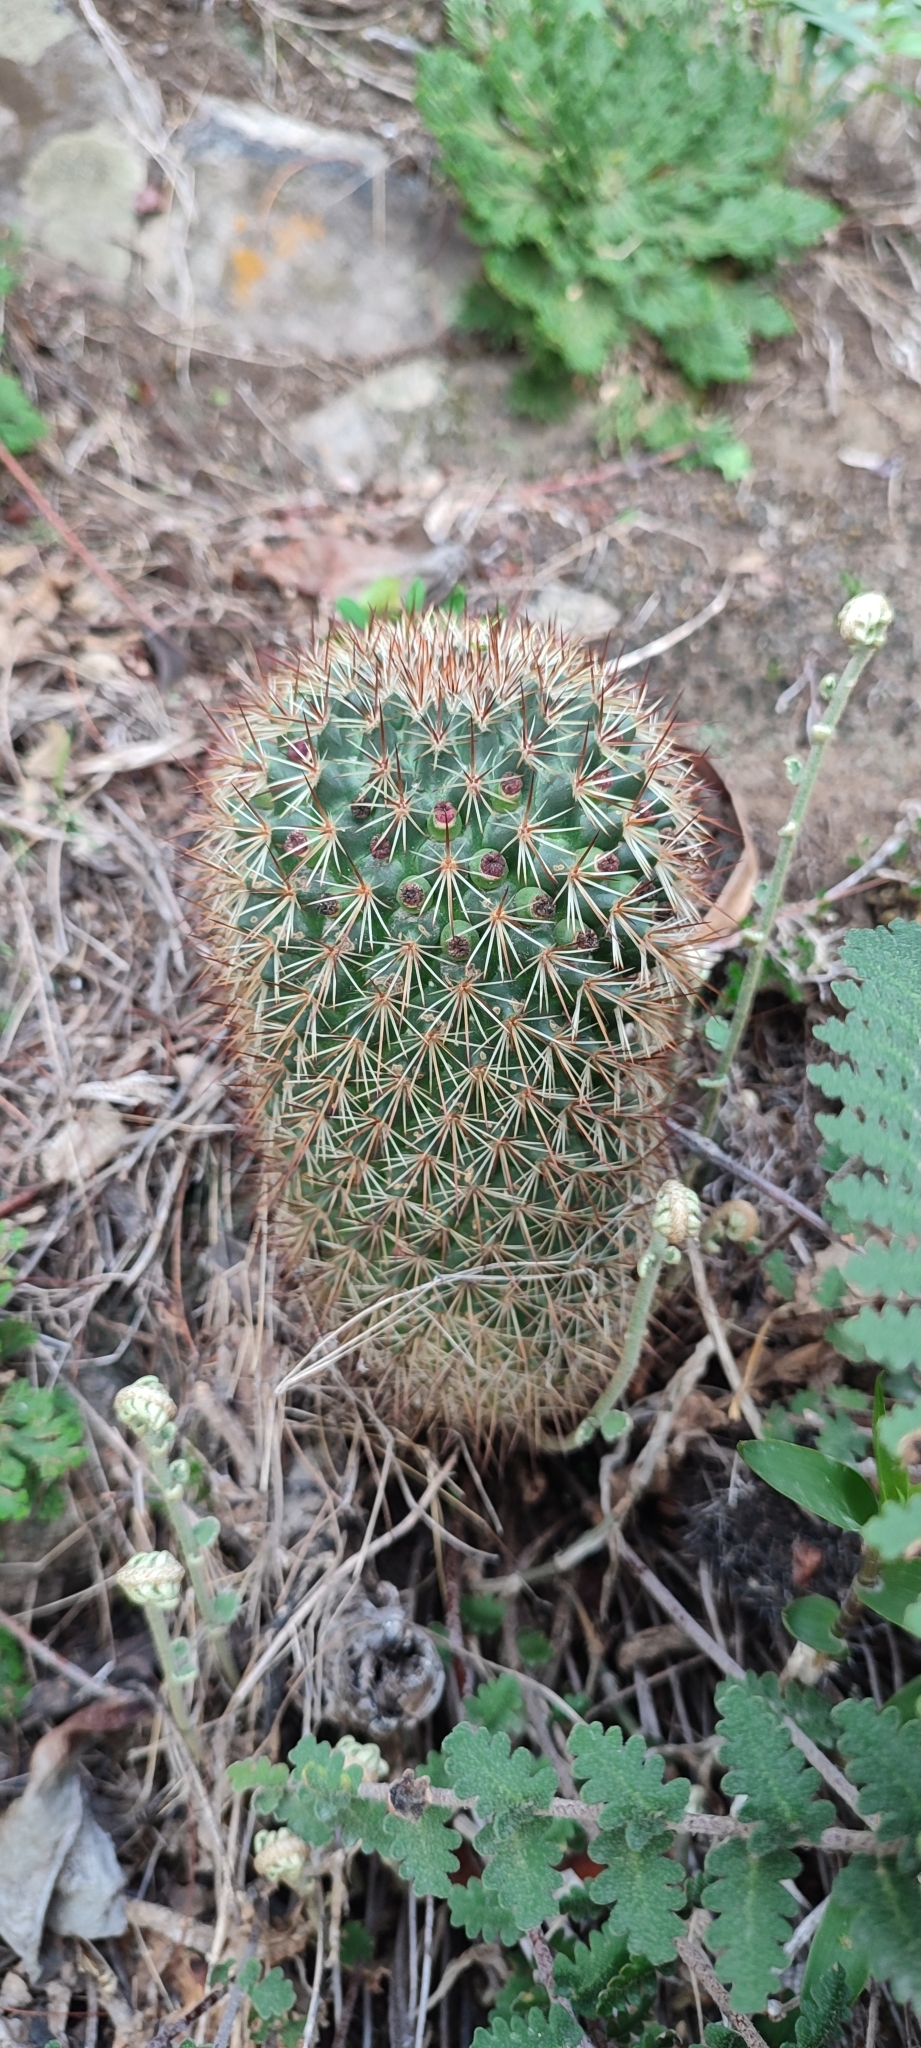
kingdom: Plantae
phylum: Tracheophyta
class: Magnoliopsida
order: Caryophyllales
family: Cactaceae
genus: Mammillaria
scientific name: Mammillaria duoformis
